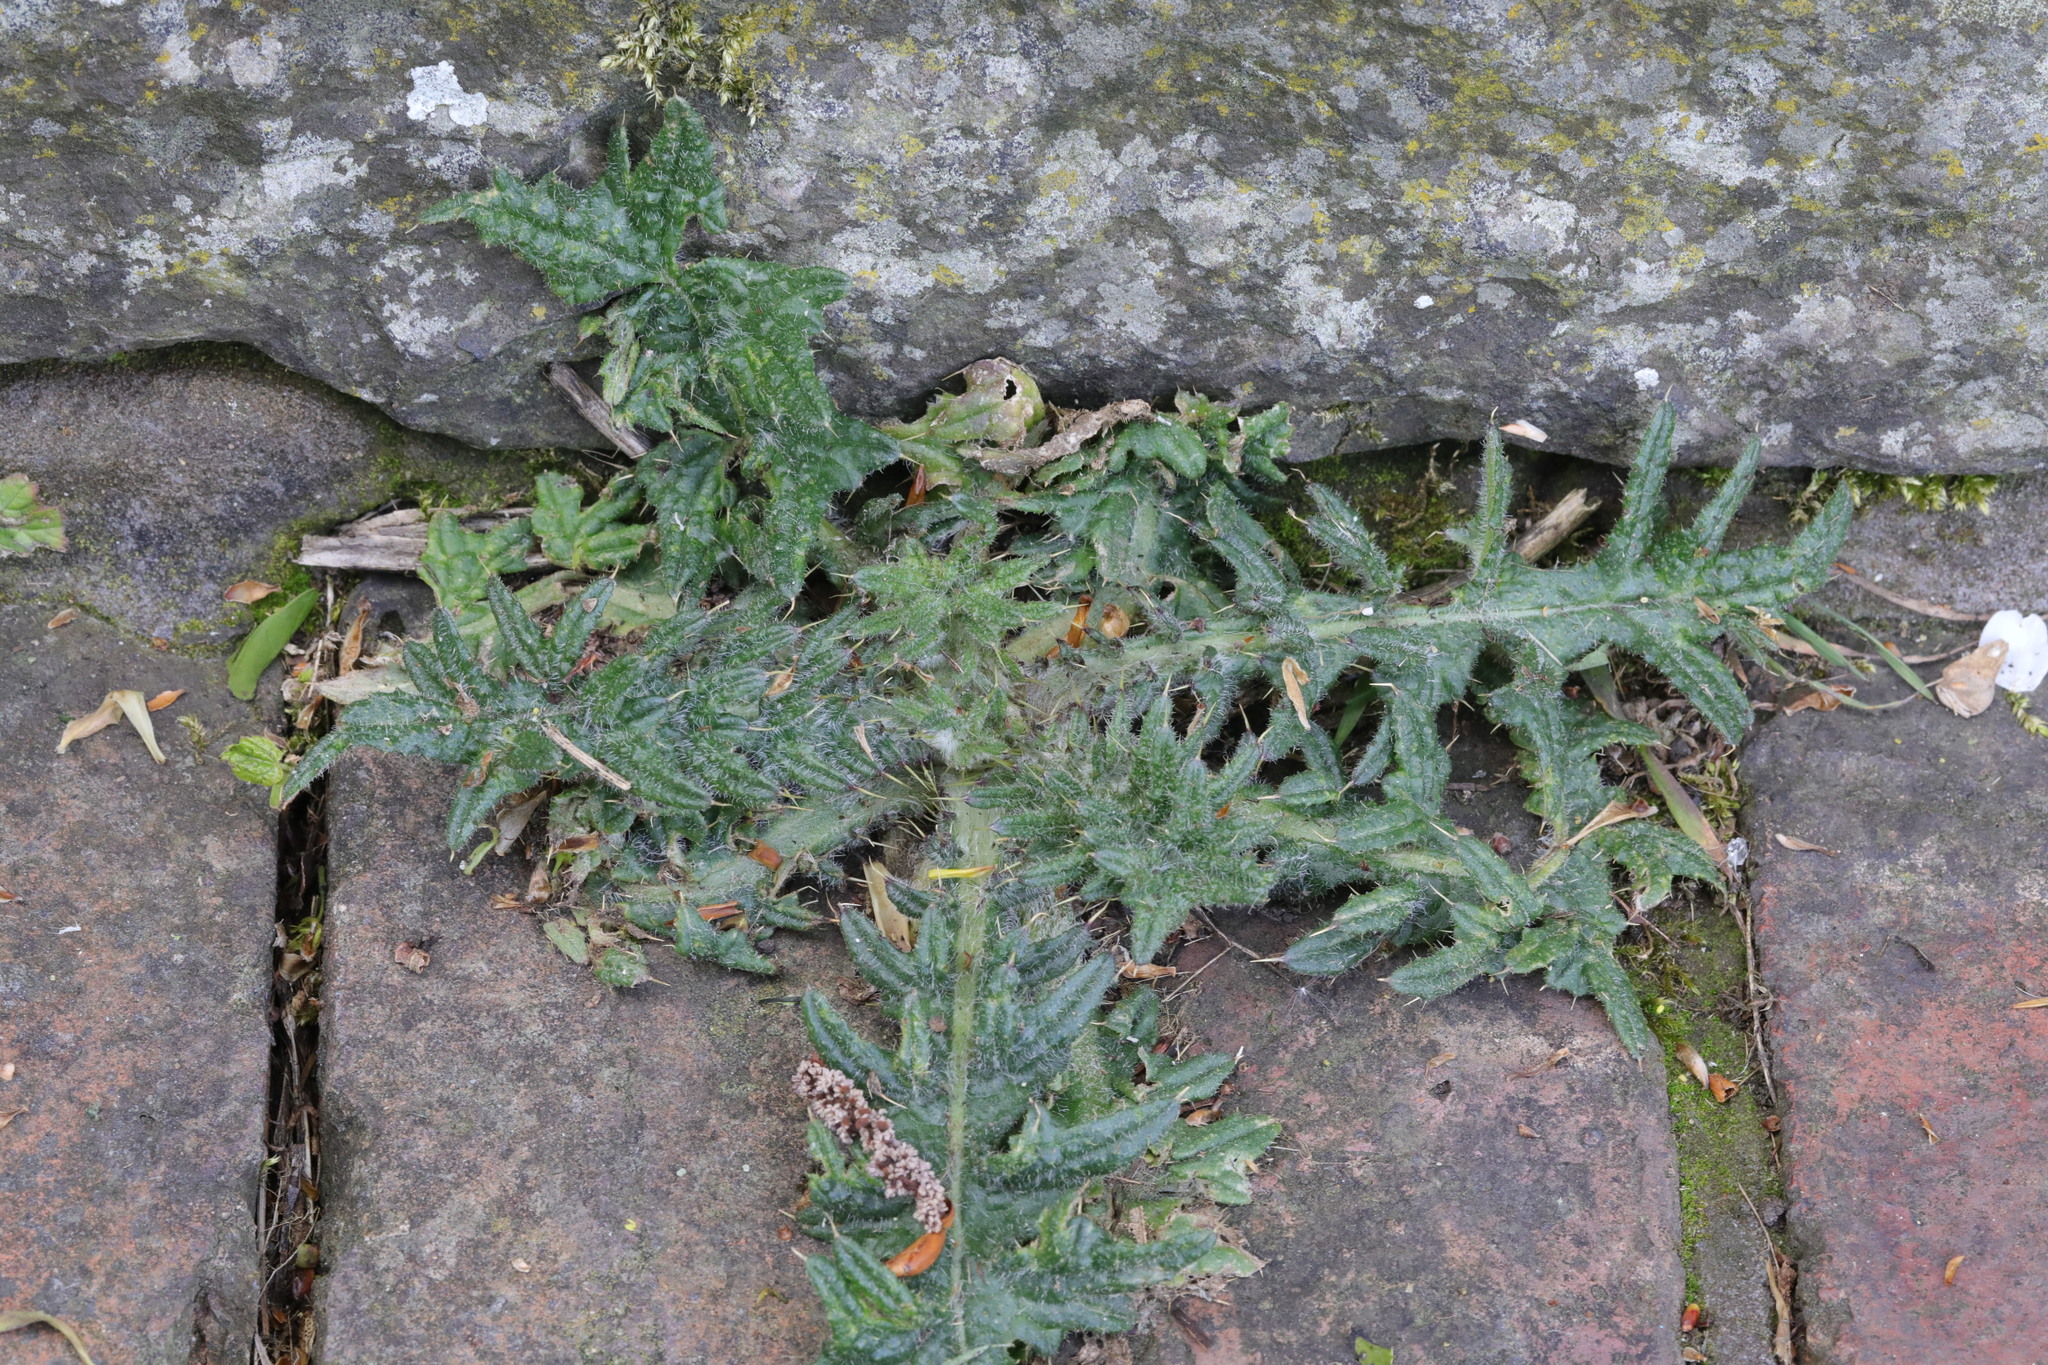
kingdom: Plantae
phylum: Tracheophyta
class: Magnoliopsida
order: Asterales
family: Asteraceae
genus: Cirsium
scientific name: Cirsium vulgare
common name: Bull thistle
